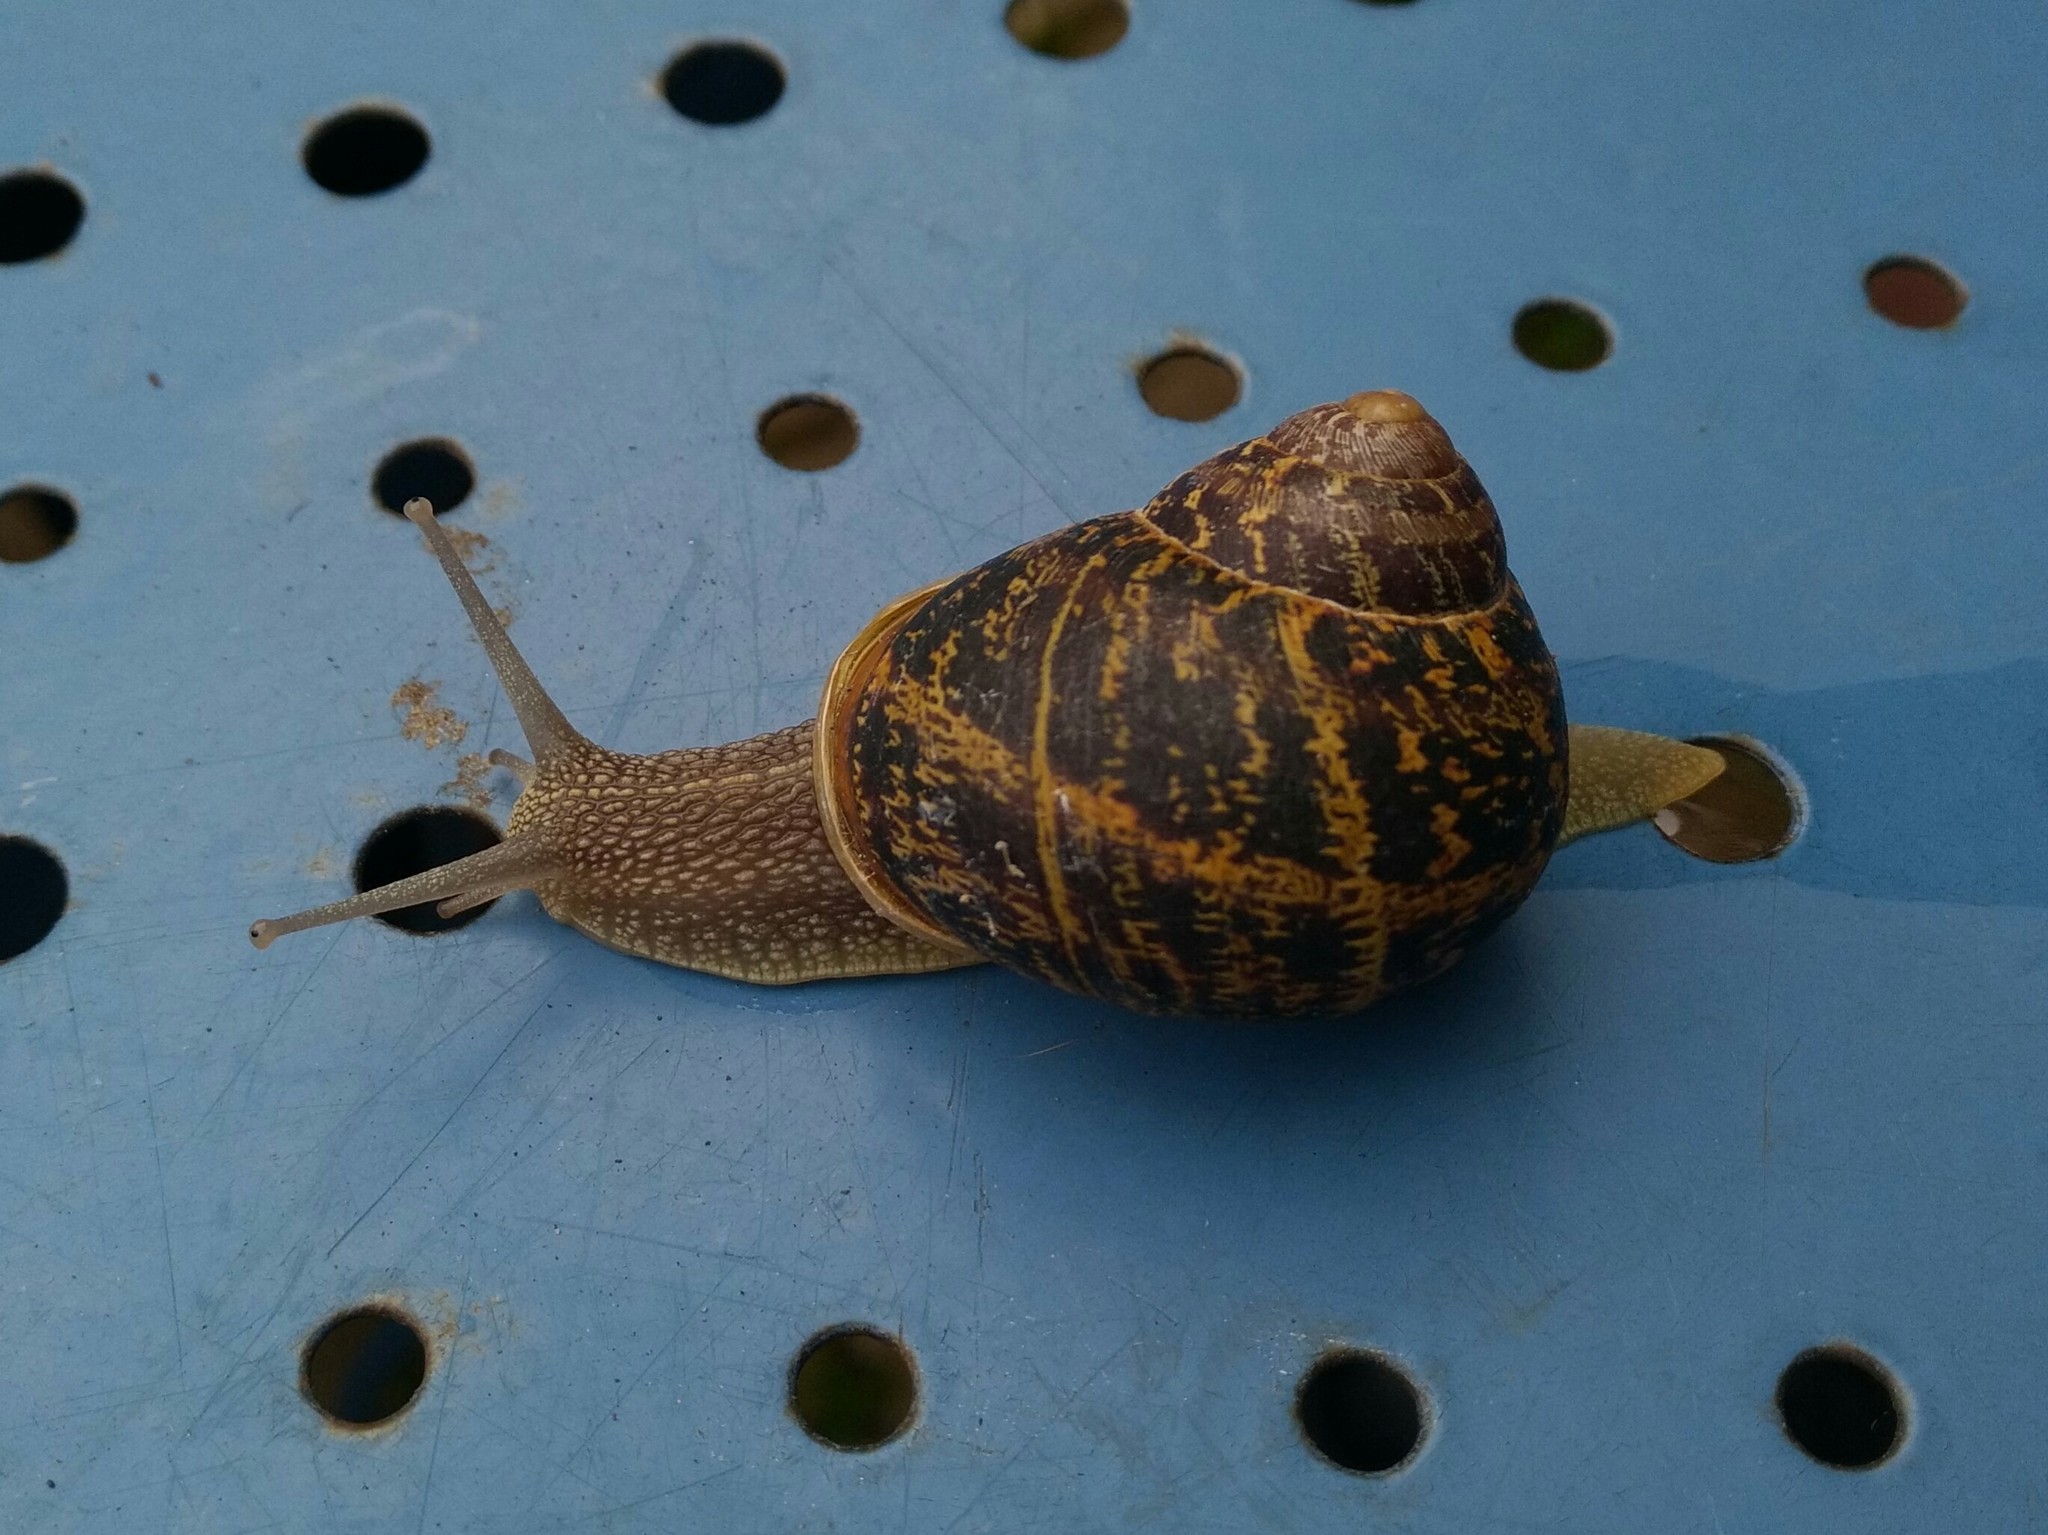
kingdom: Animalia
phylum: Mollusca
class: Gastropoda
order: Stylommatophora
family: Helicidae
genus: Cornu
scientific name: Cornu aspersum
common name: Brown garden snail
